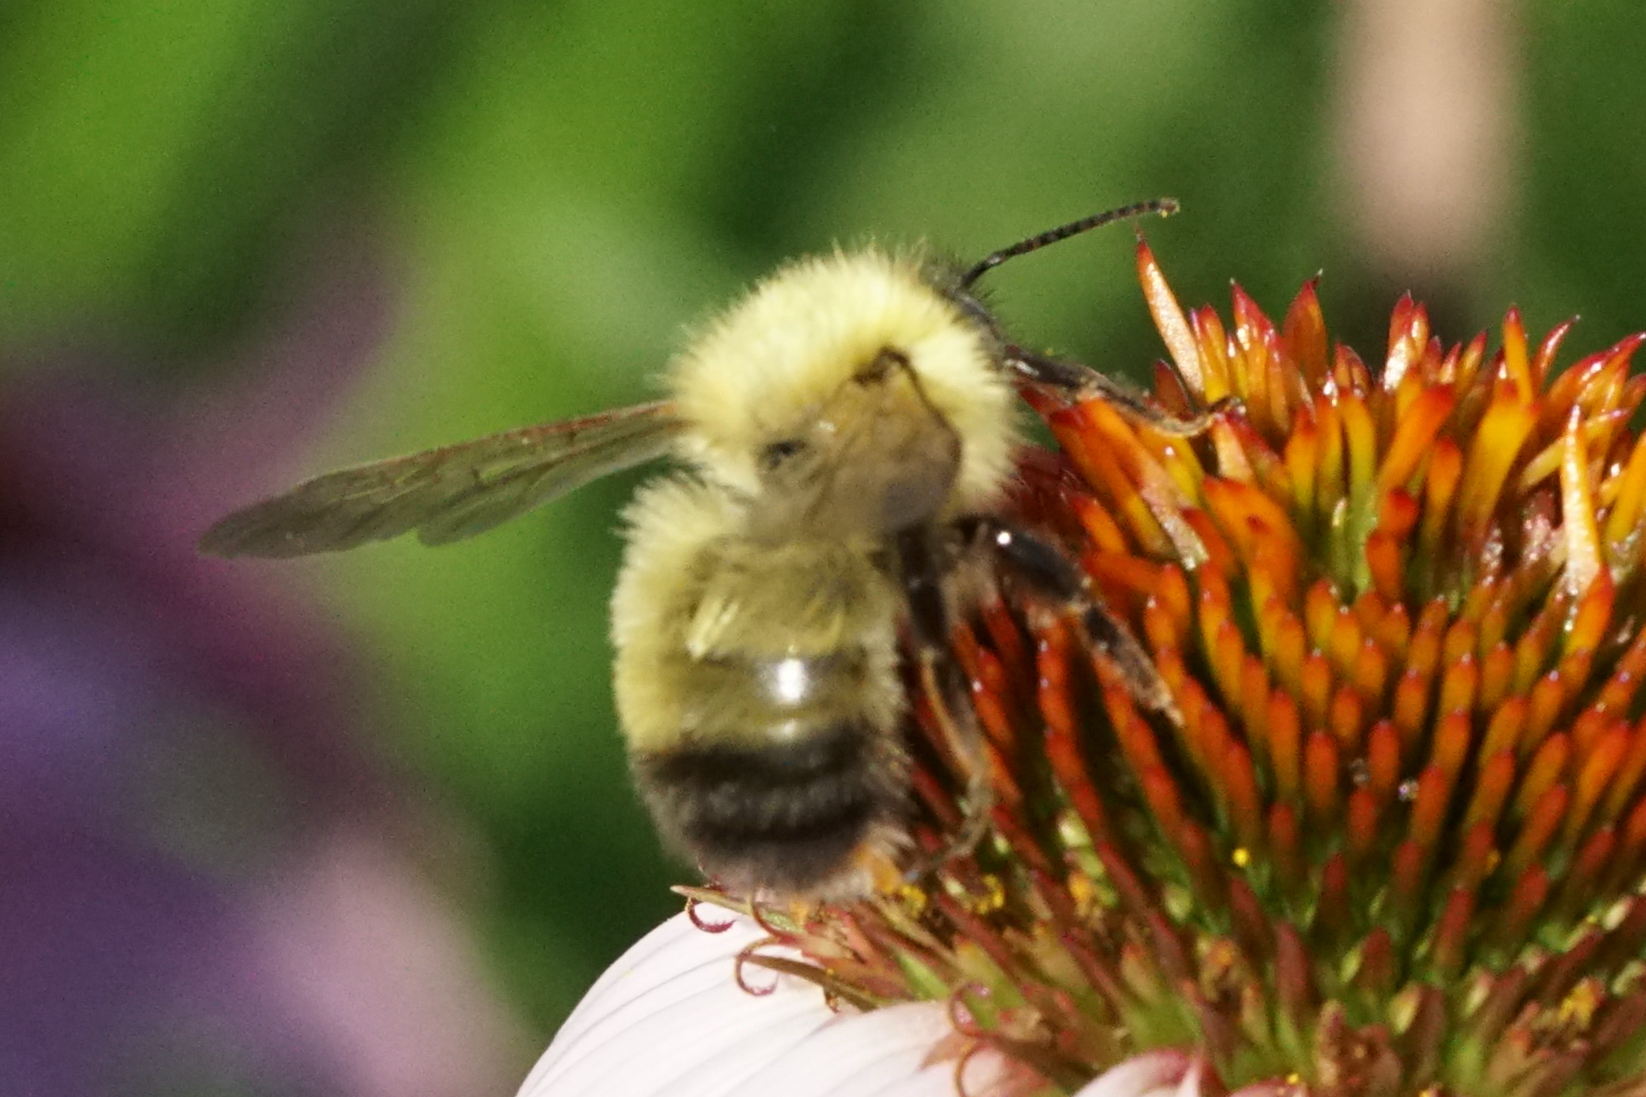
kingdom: Animalia
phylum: Arthropoda
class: Insecta
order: Hymenoptera
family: Apidae
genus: Bombus
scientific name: Bombus perplexus
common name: Confusing bumble bee
